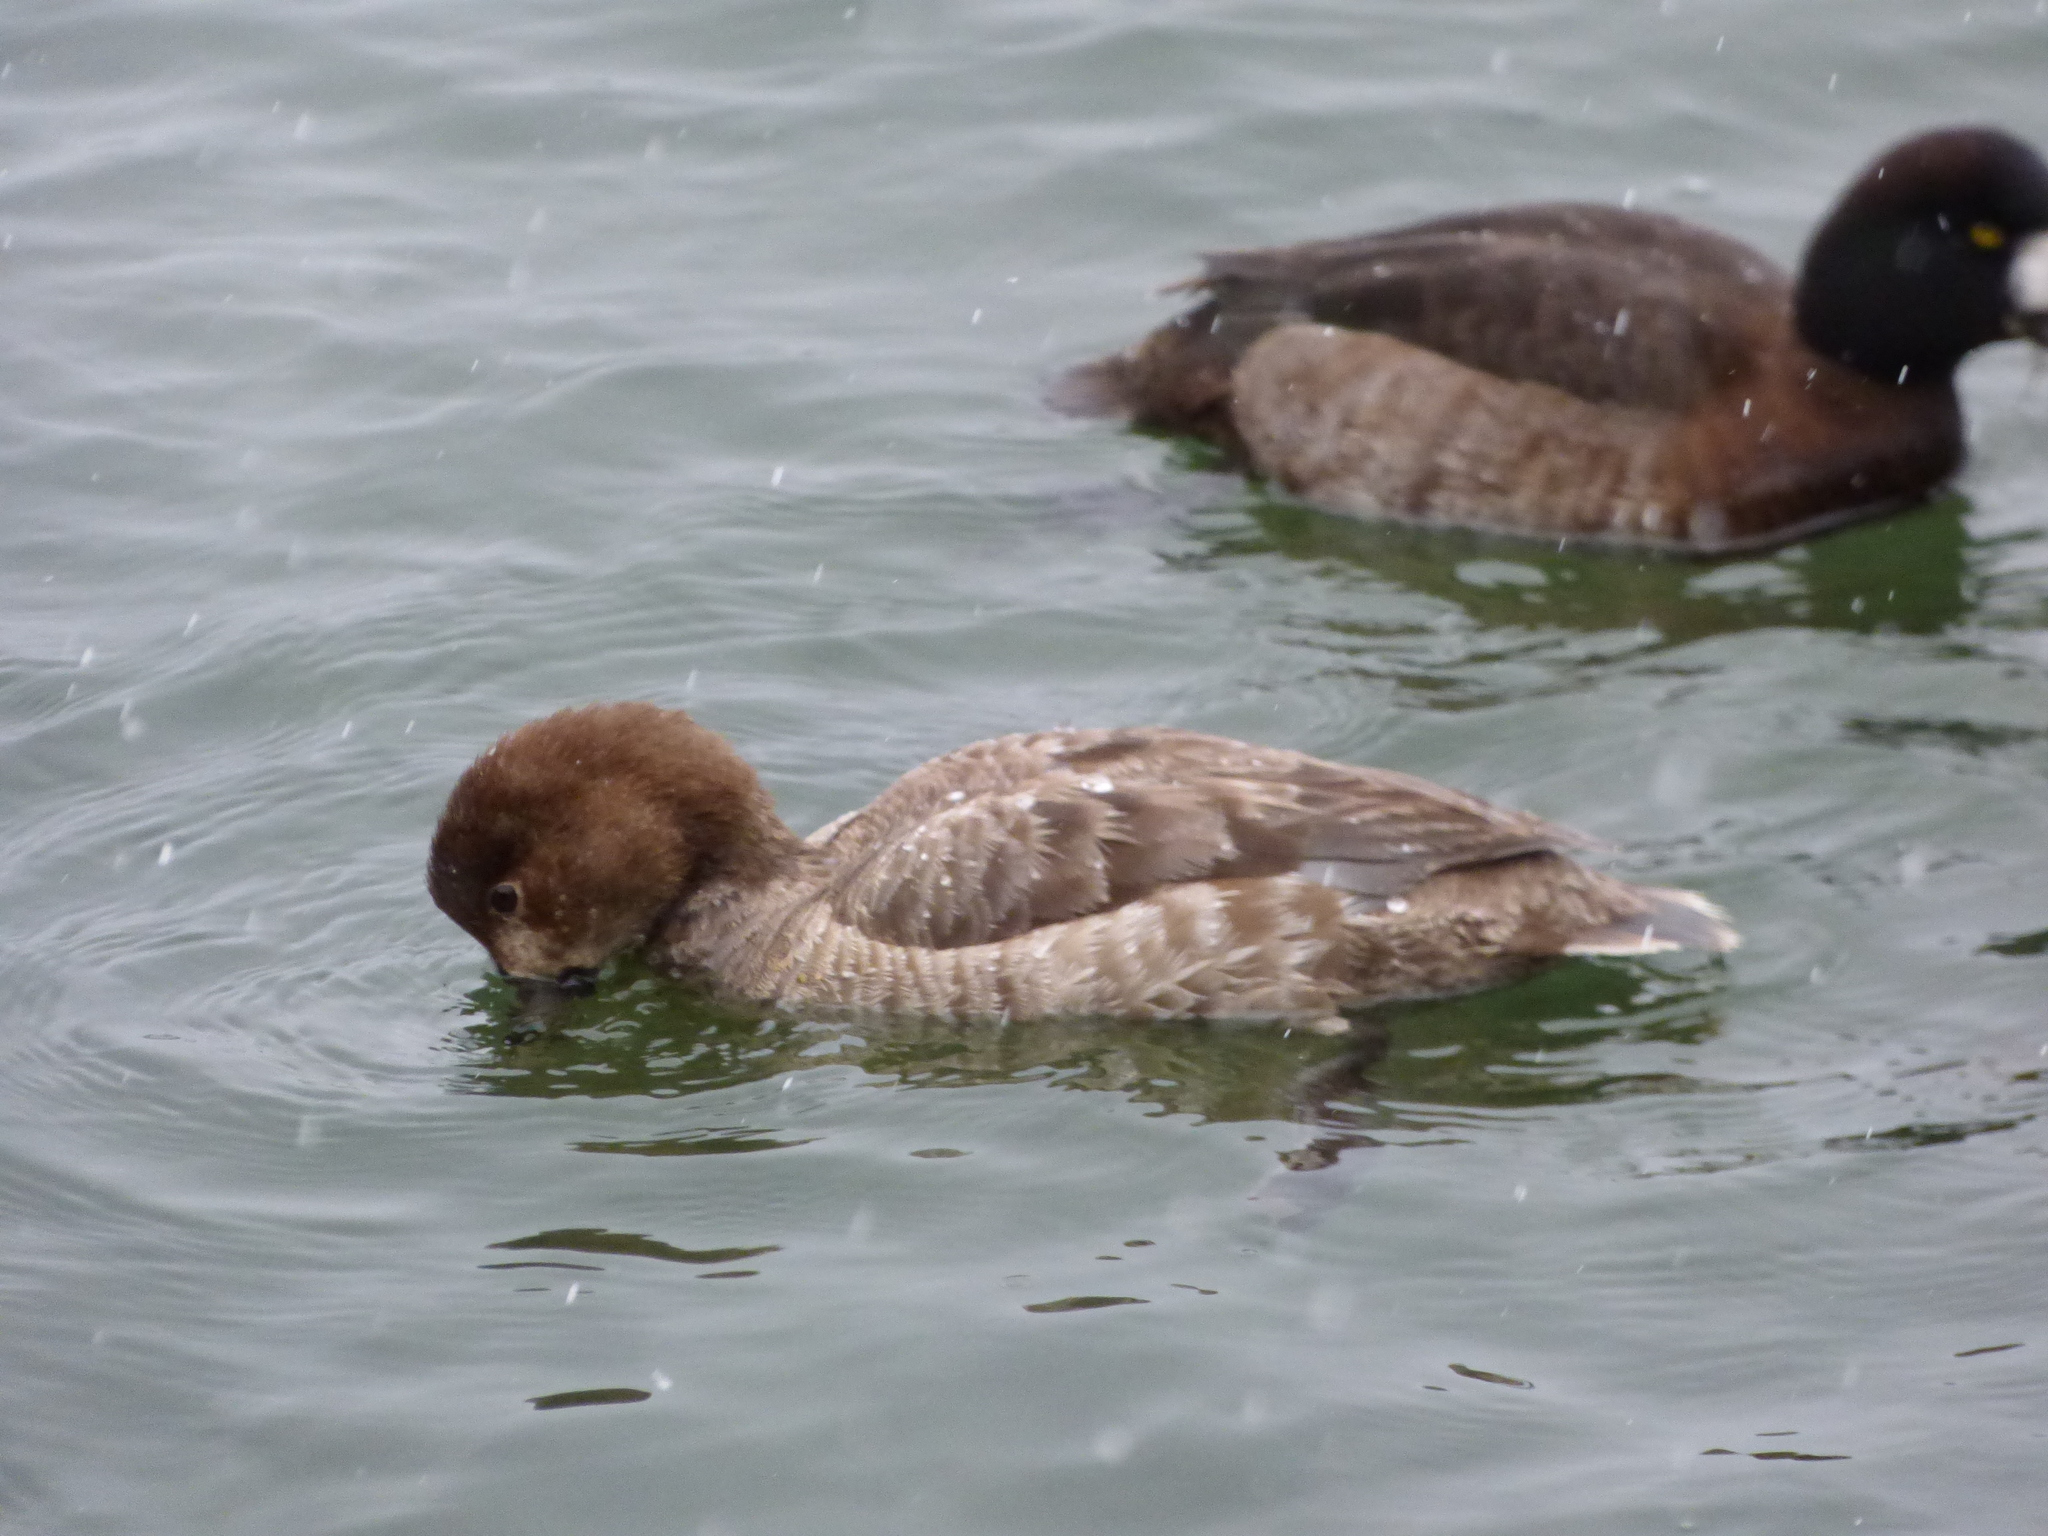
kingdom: Animalia
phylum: Chordata
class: Aves
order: Anseriformes
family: Anatidae
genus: Aythya
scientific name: Aythya americana
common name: Redhead
